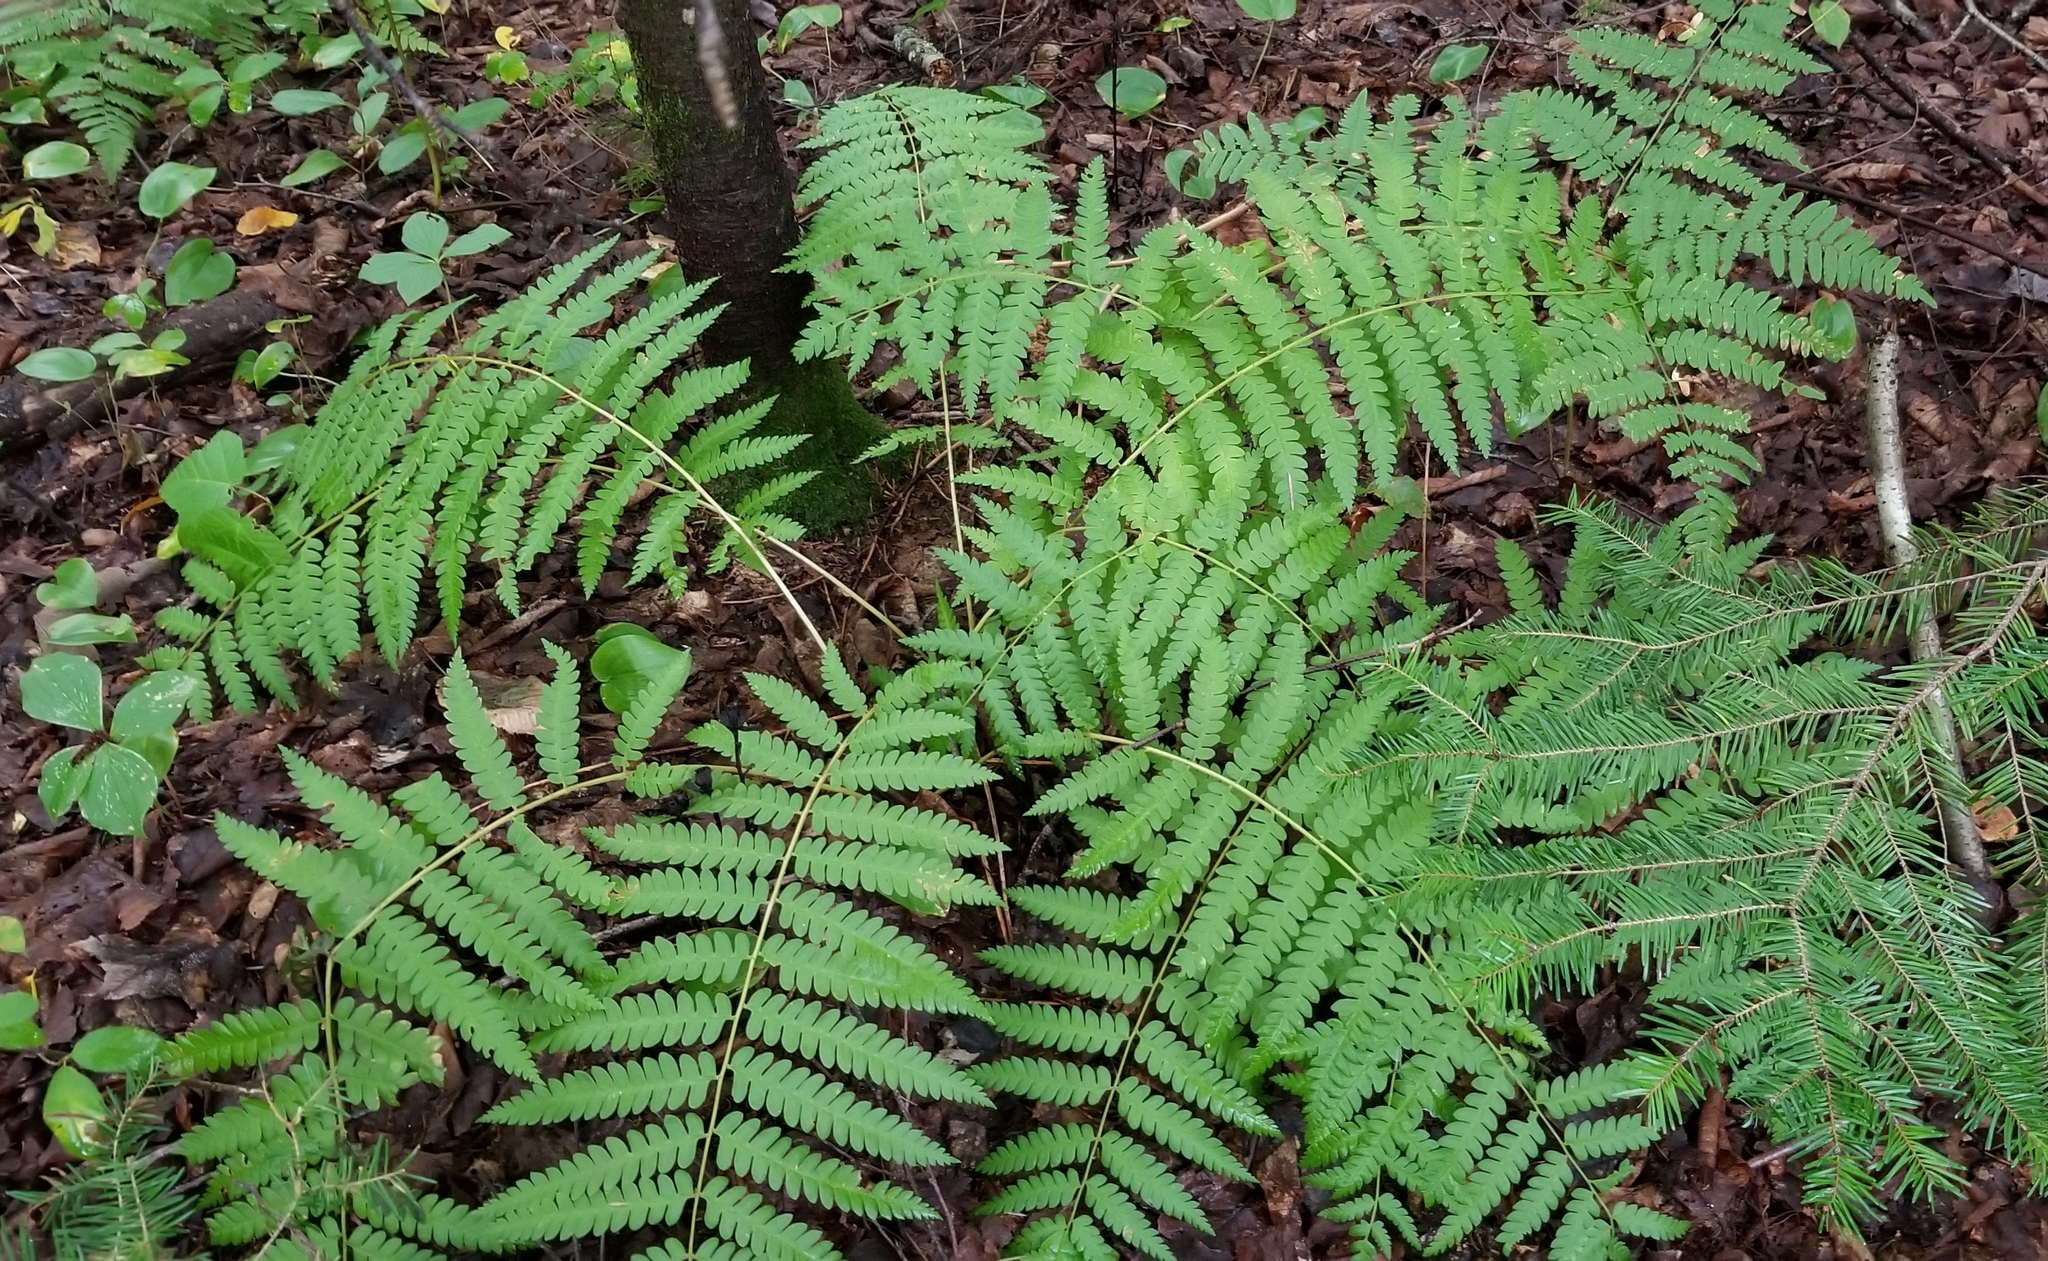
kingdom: Plantae
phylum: Tracheophyta
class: Polypodiopsida
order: Osmundales
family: Osmundaceae
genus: Osmundastrum
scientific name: Osmundastrum cinnamomeum
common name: Cinnamon fern
